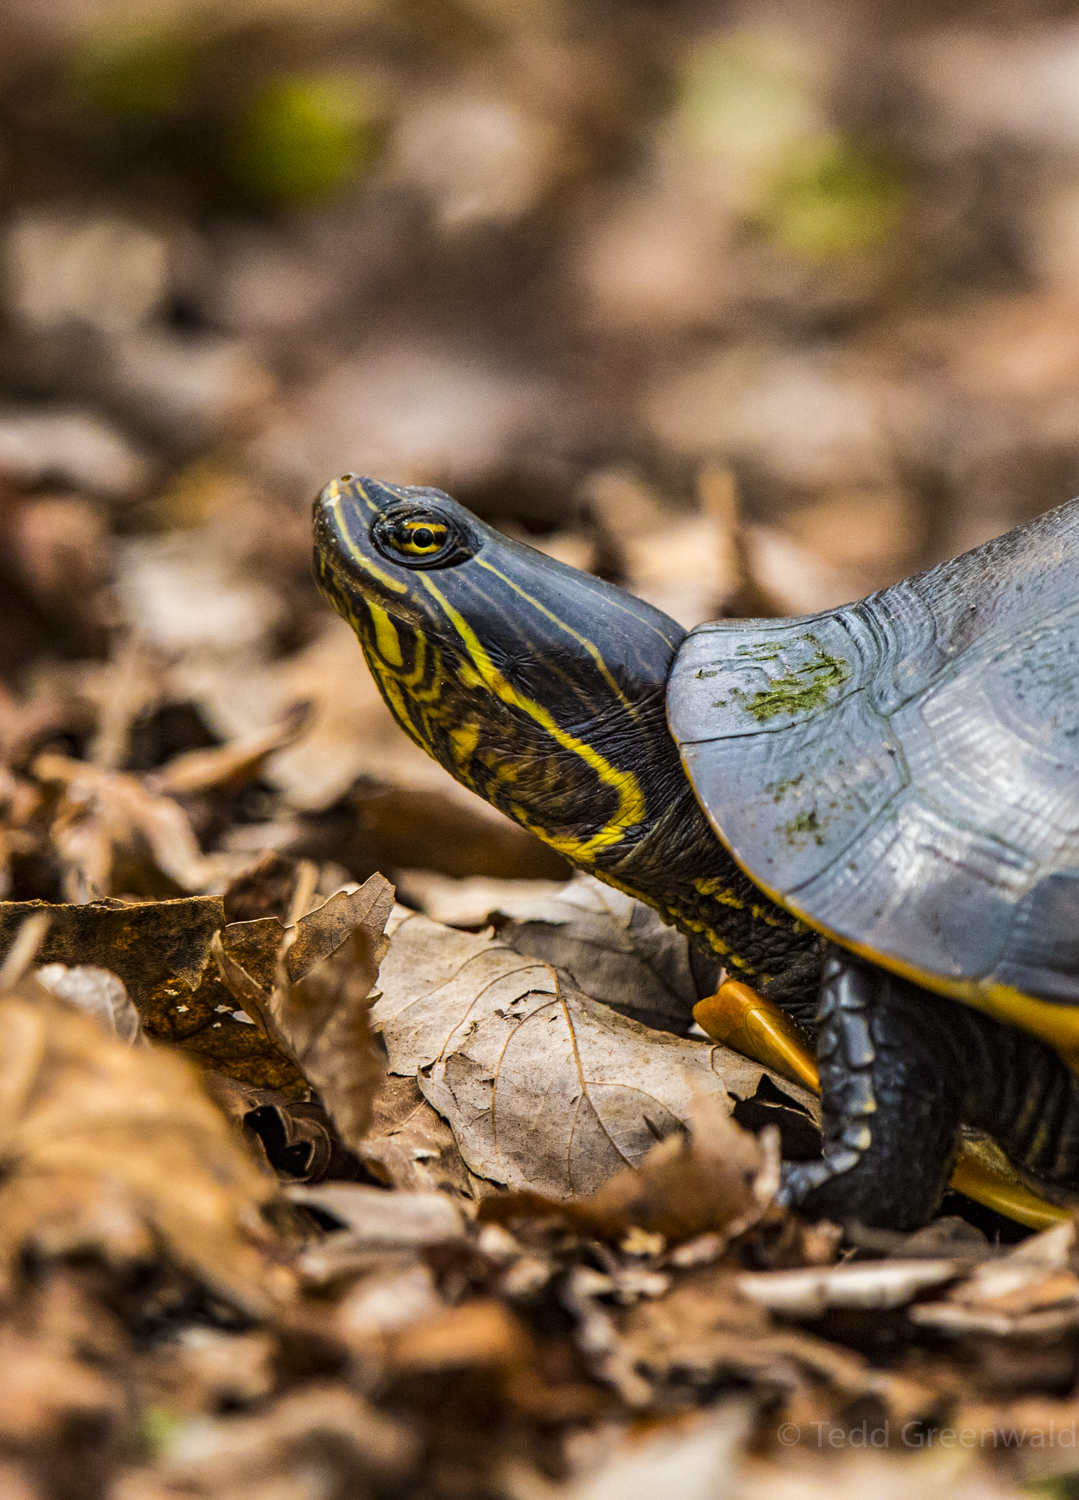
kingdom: Animalia
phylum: Chordata
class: Testudines
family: Emydidae
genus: Deirochelys
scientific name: Deirochelys reticularia
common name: Chicken turtle
